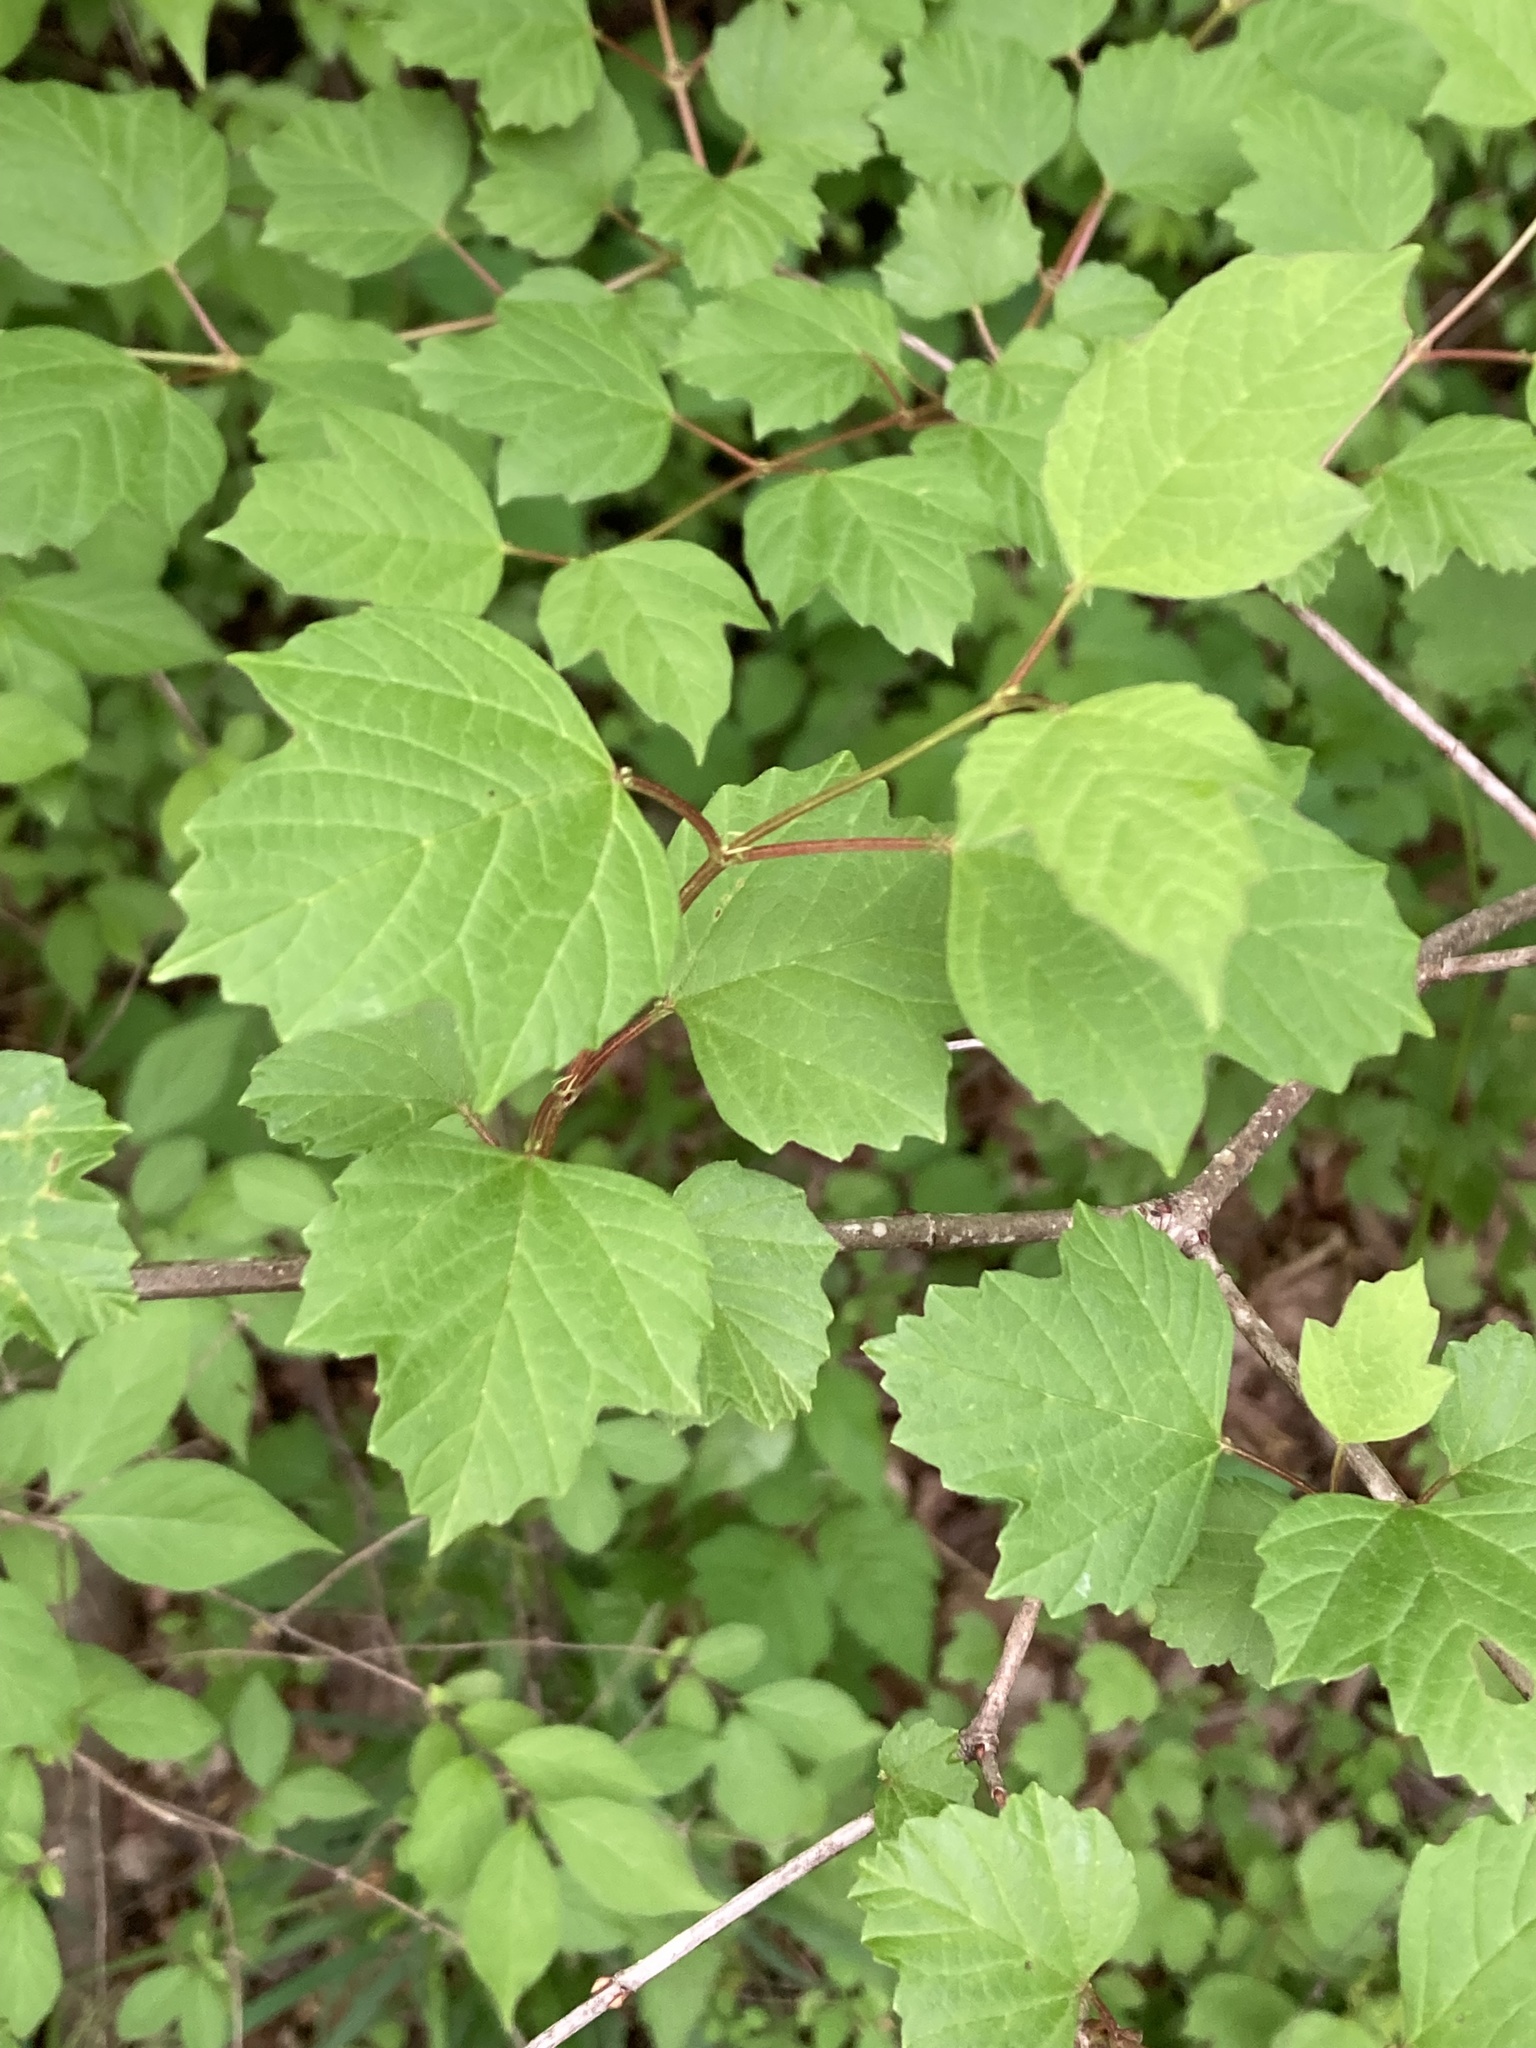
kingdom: Plantae
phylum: Tracheophyta
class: Magnoliopsida
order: Dipsacales
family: Viburnaceae
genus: Viburnum
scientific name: Viburnum opulus
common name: Guelder-rose
